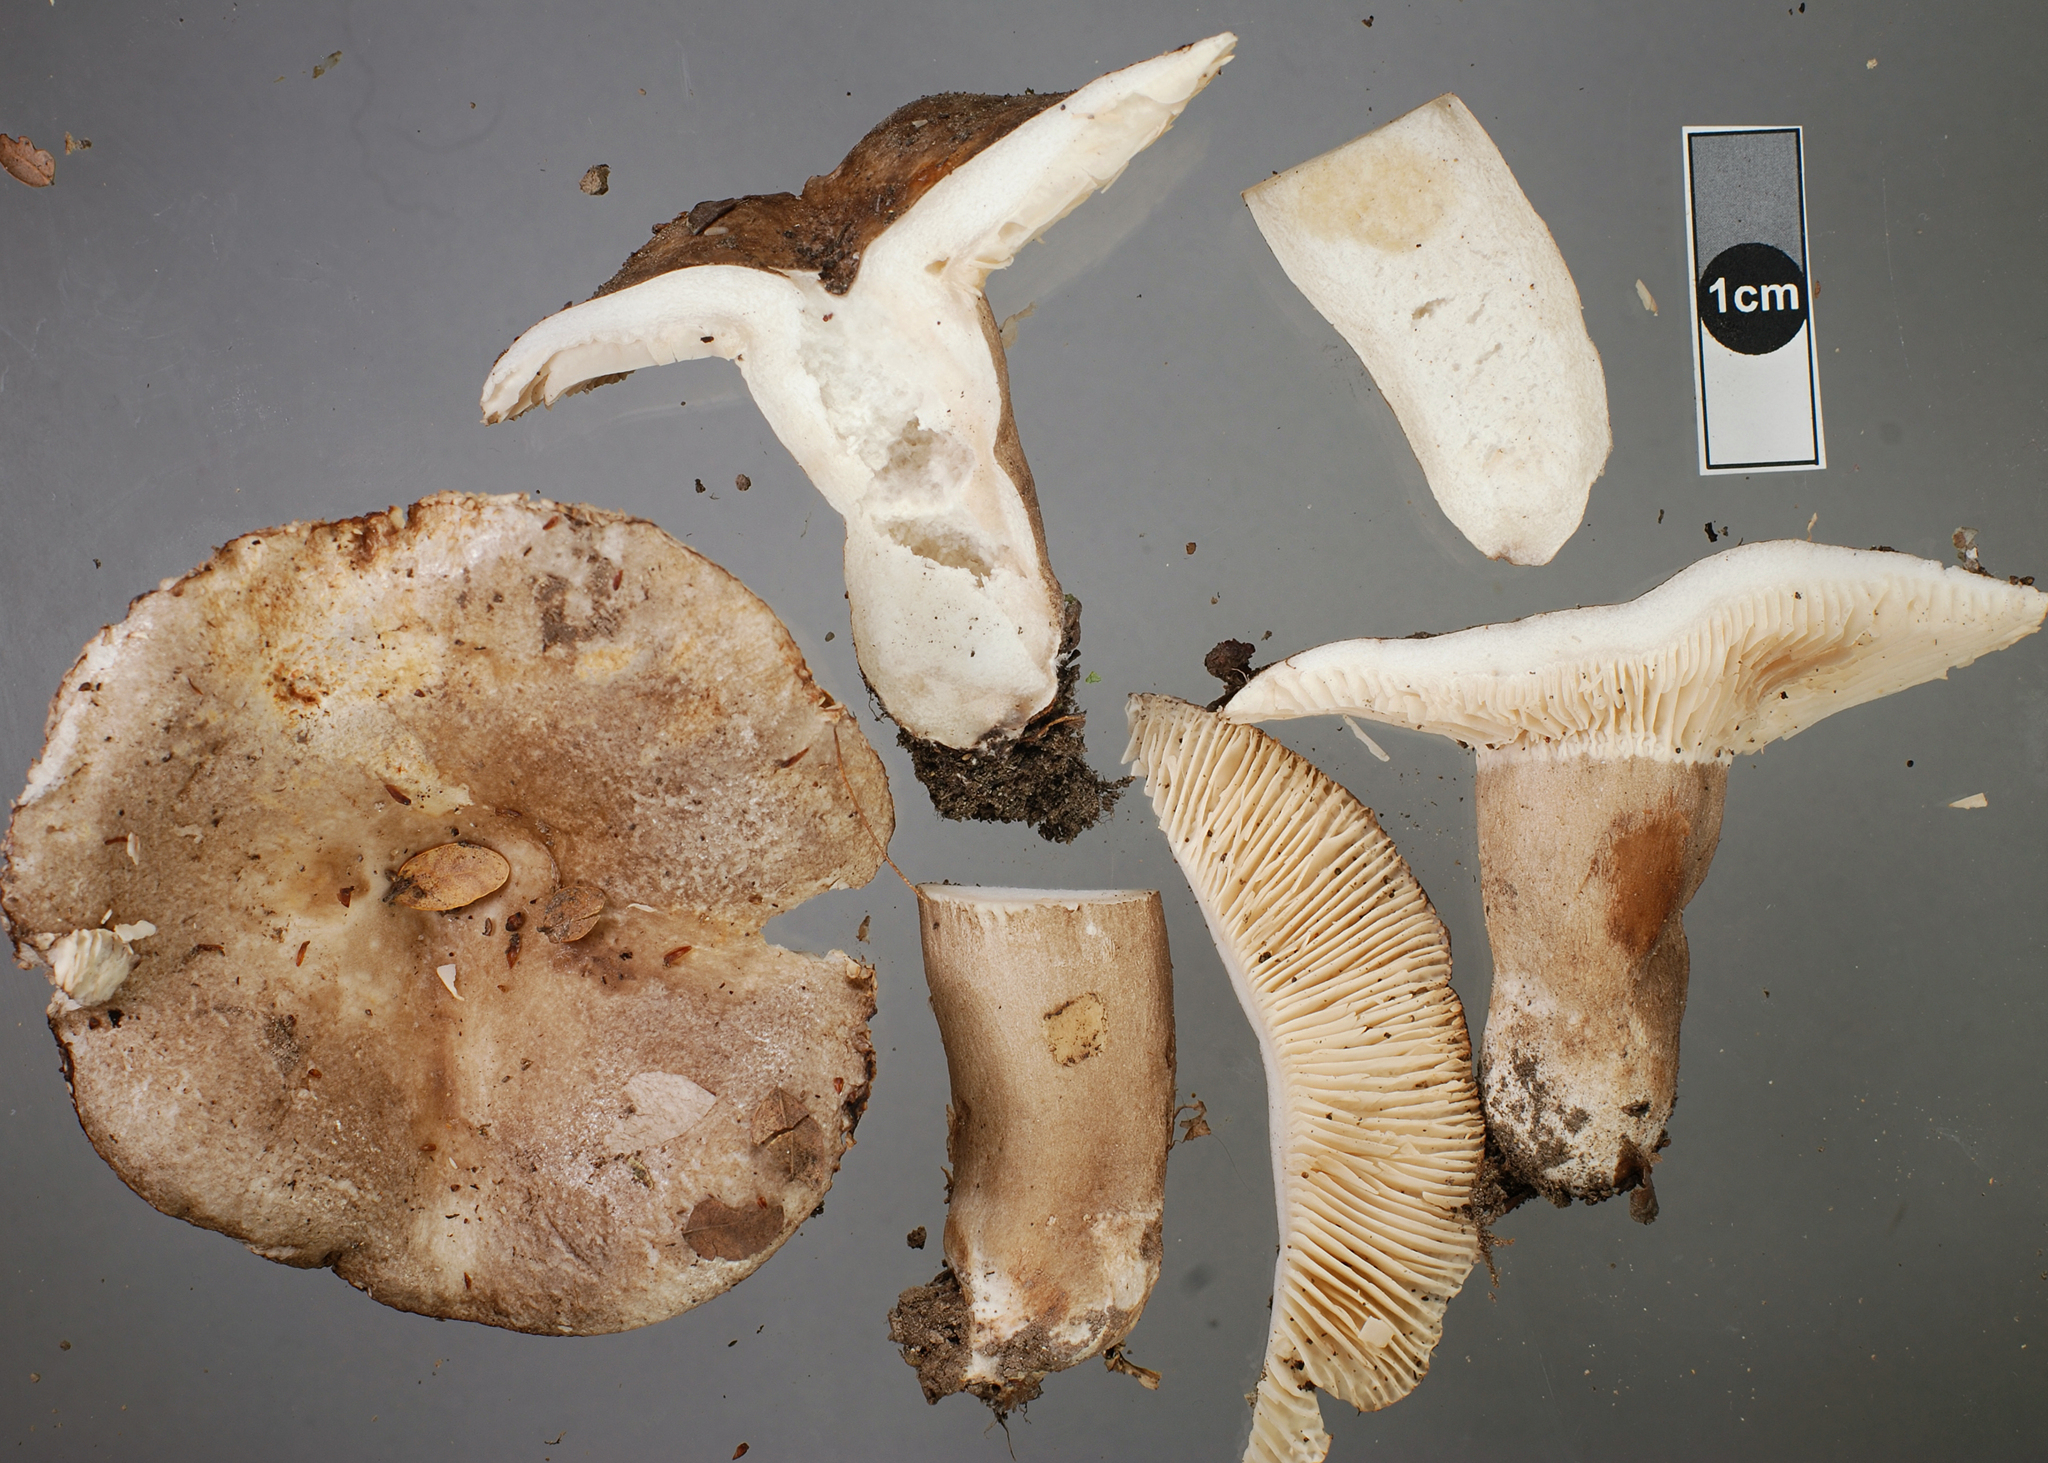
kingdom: Fungi
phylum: Basidiomycota
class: Agaricomycetes
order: Russulales
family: Russulaceae
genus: Russula
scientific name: Russula griseobrunnea
